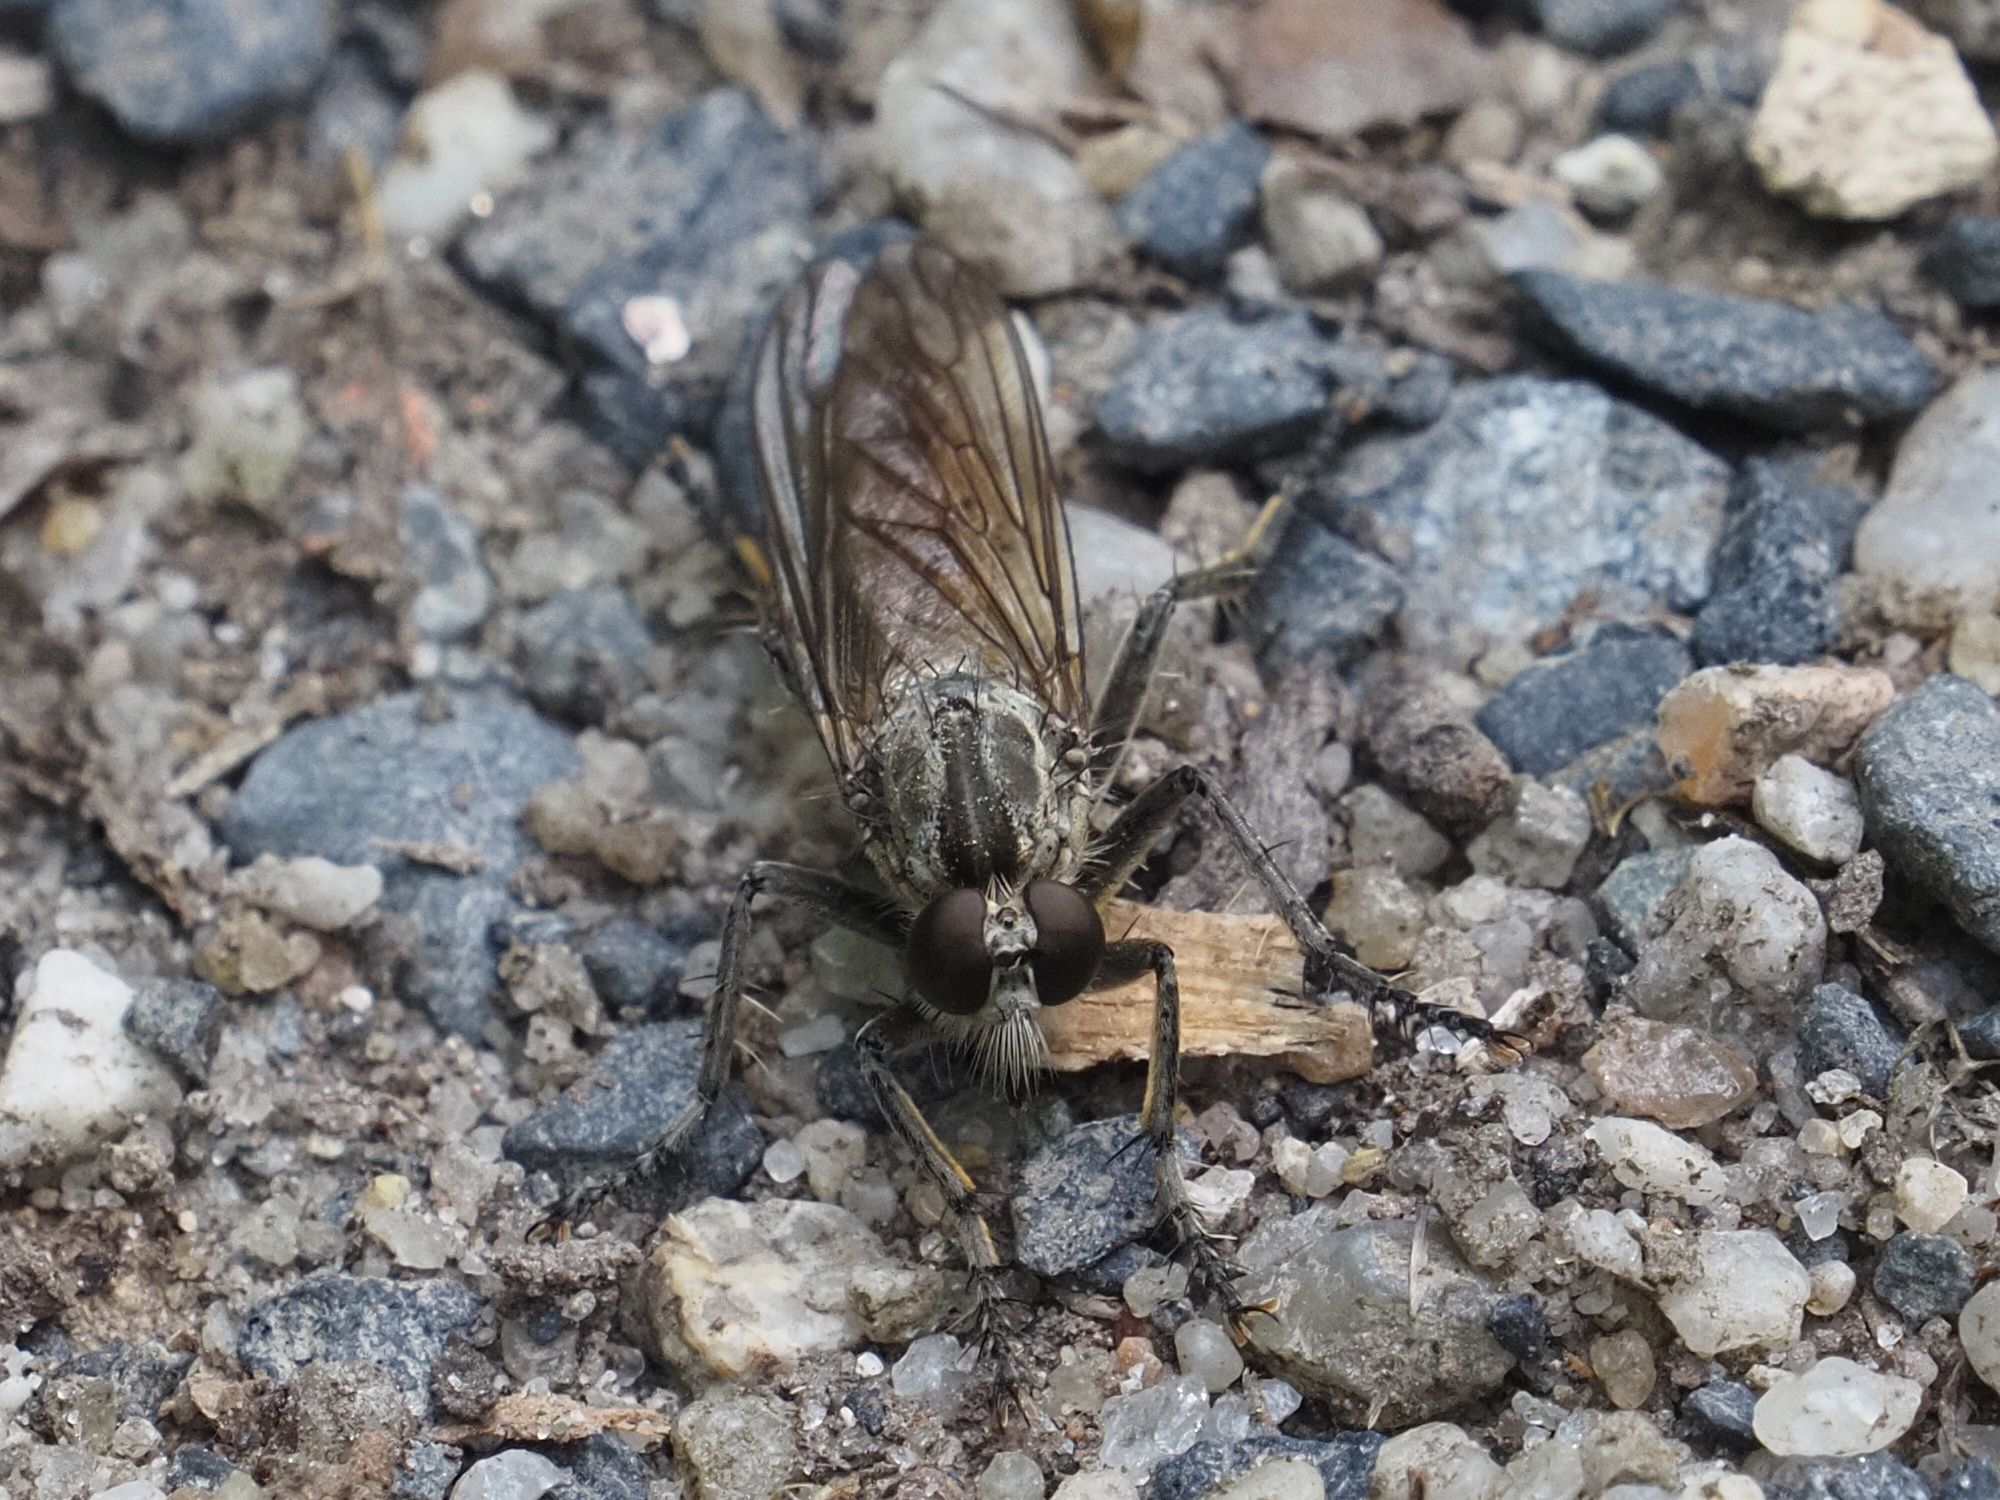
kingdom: Animalia
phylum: Arthropoda
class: Insecta
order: Diptera
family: Asilidae
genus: Philonicus
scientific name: Philonicus albiceps
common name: Dune robberfly
